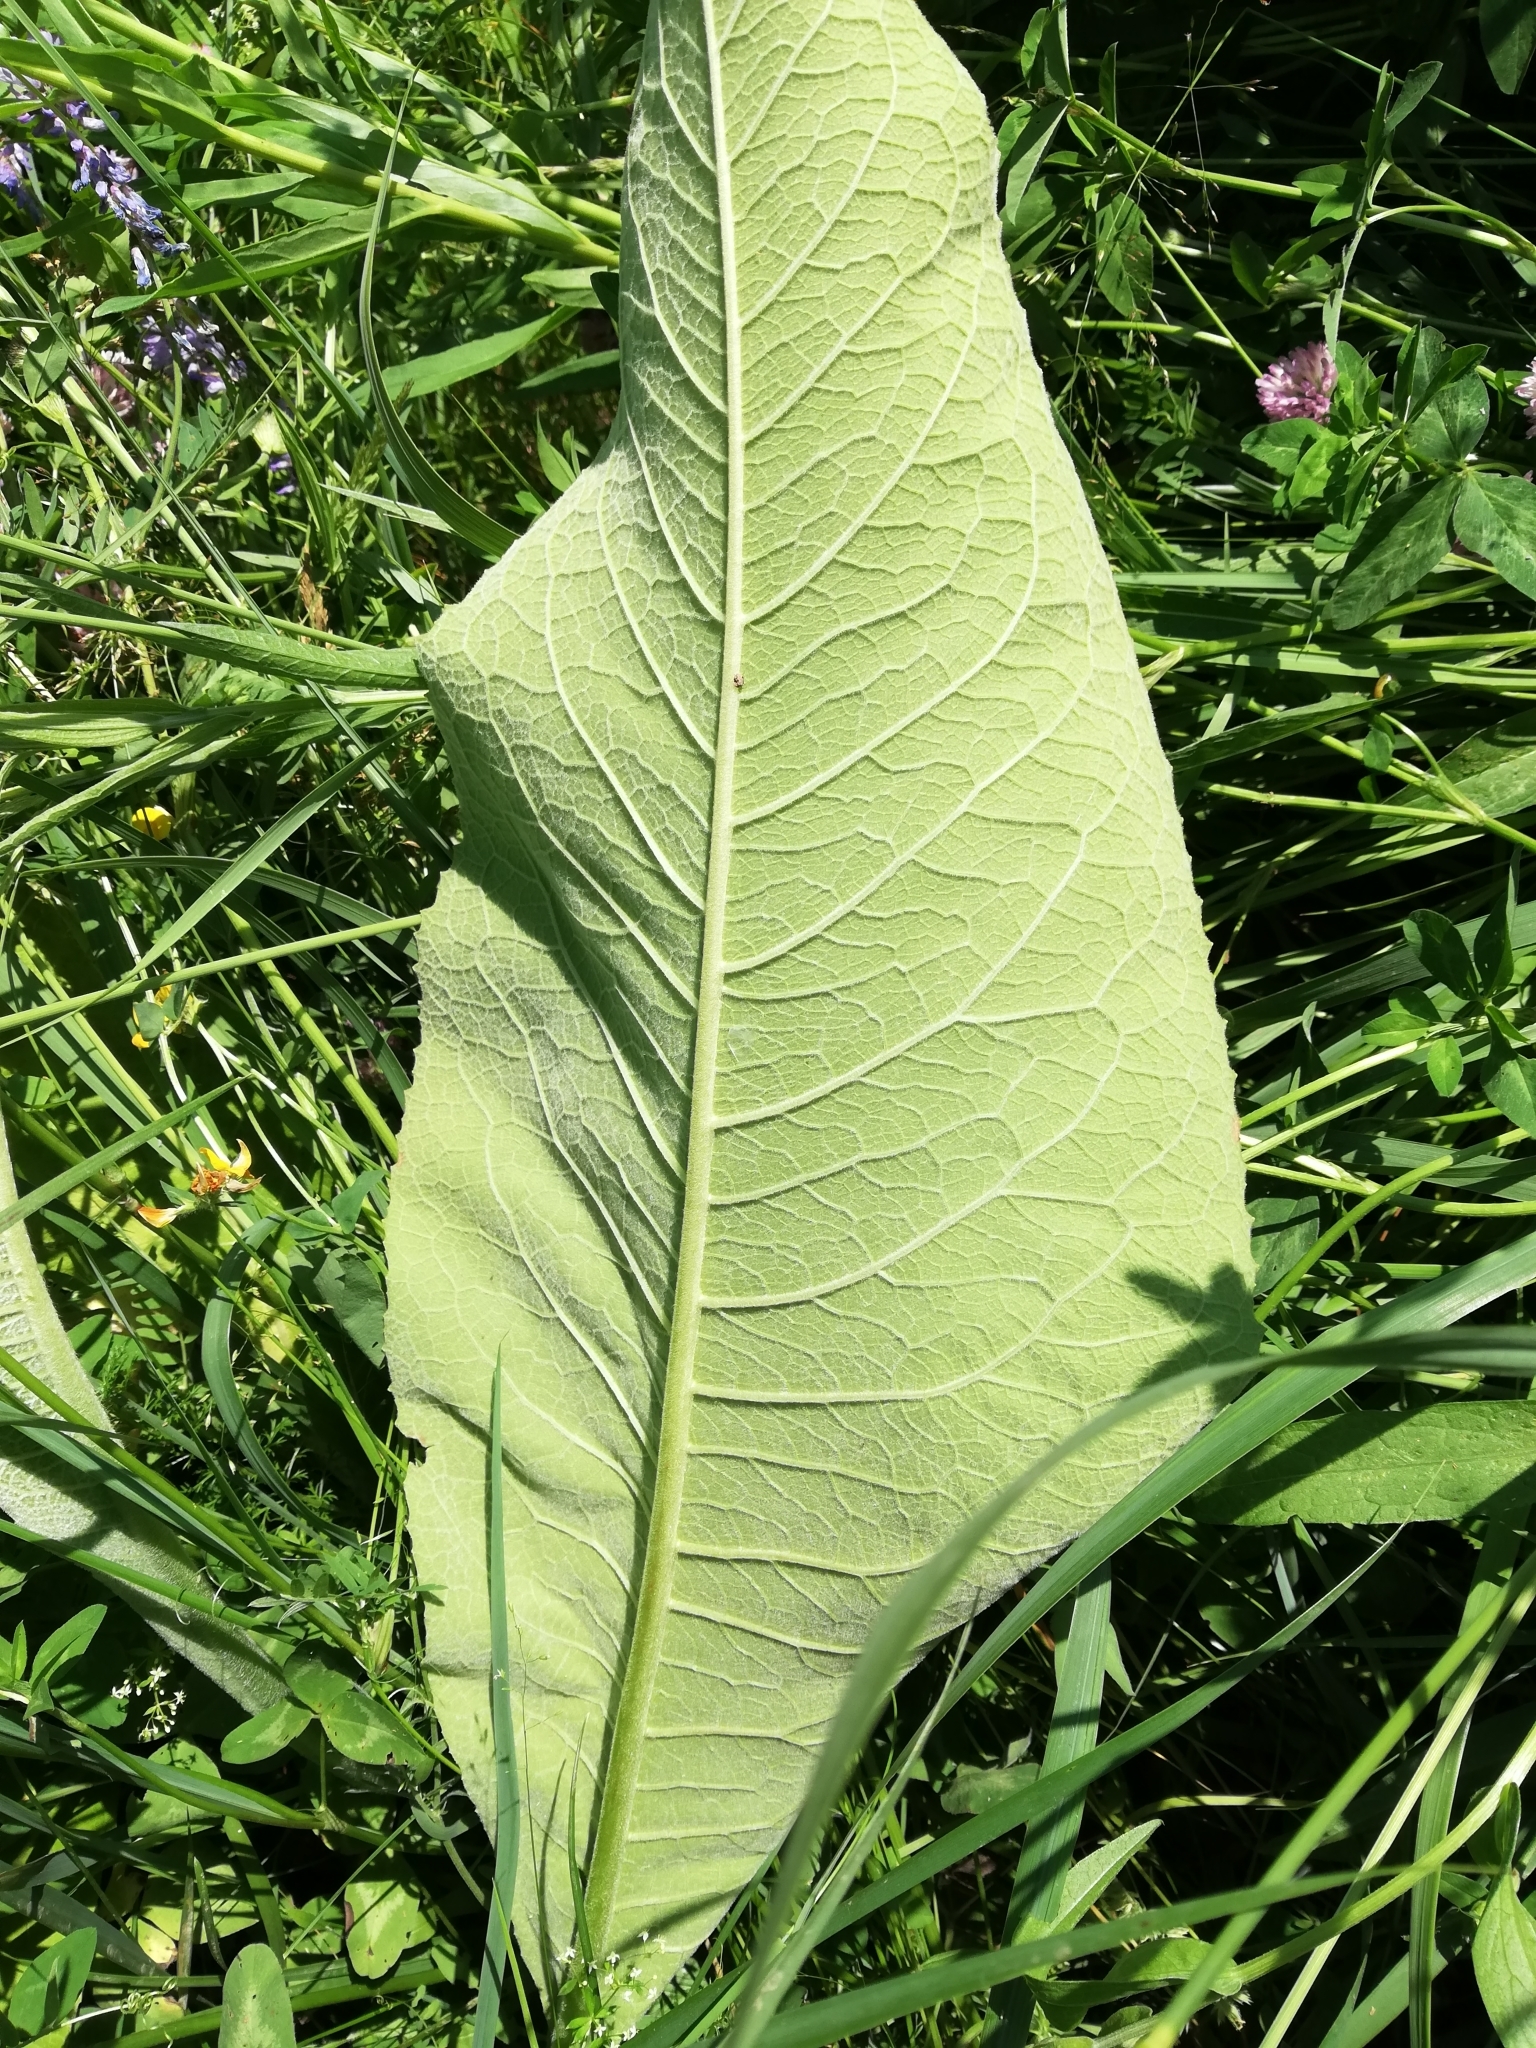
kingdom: Plantae
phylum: Tracheophyta
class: Magnoliopsida
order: Asterales
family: Asteraceae
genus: Inula
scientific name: Inula helenium
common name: Elecampane
